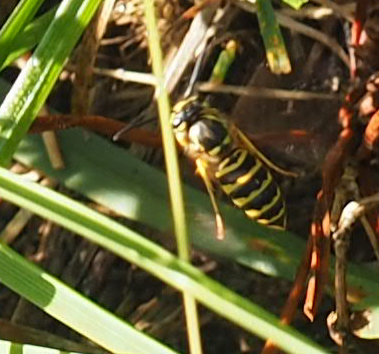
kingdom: Animalia
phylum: Arthropoda
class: Insecta
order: Hymenoptera
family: Vespidae
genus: Vespula
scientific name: Vespula maculifrons
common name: Eastern yellowjacket
